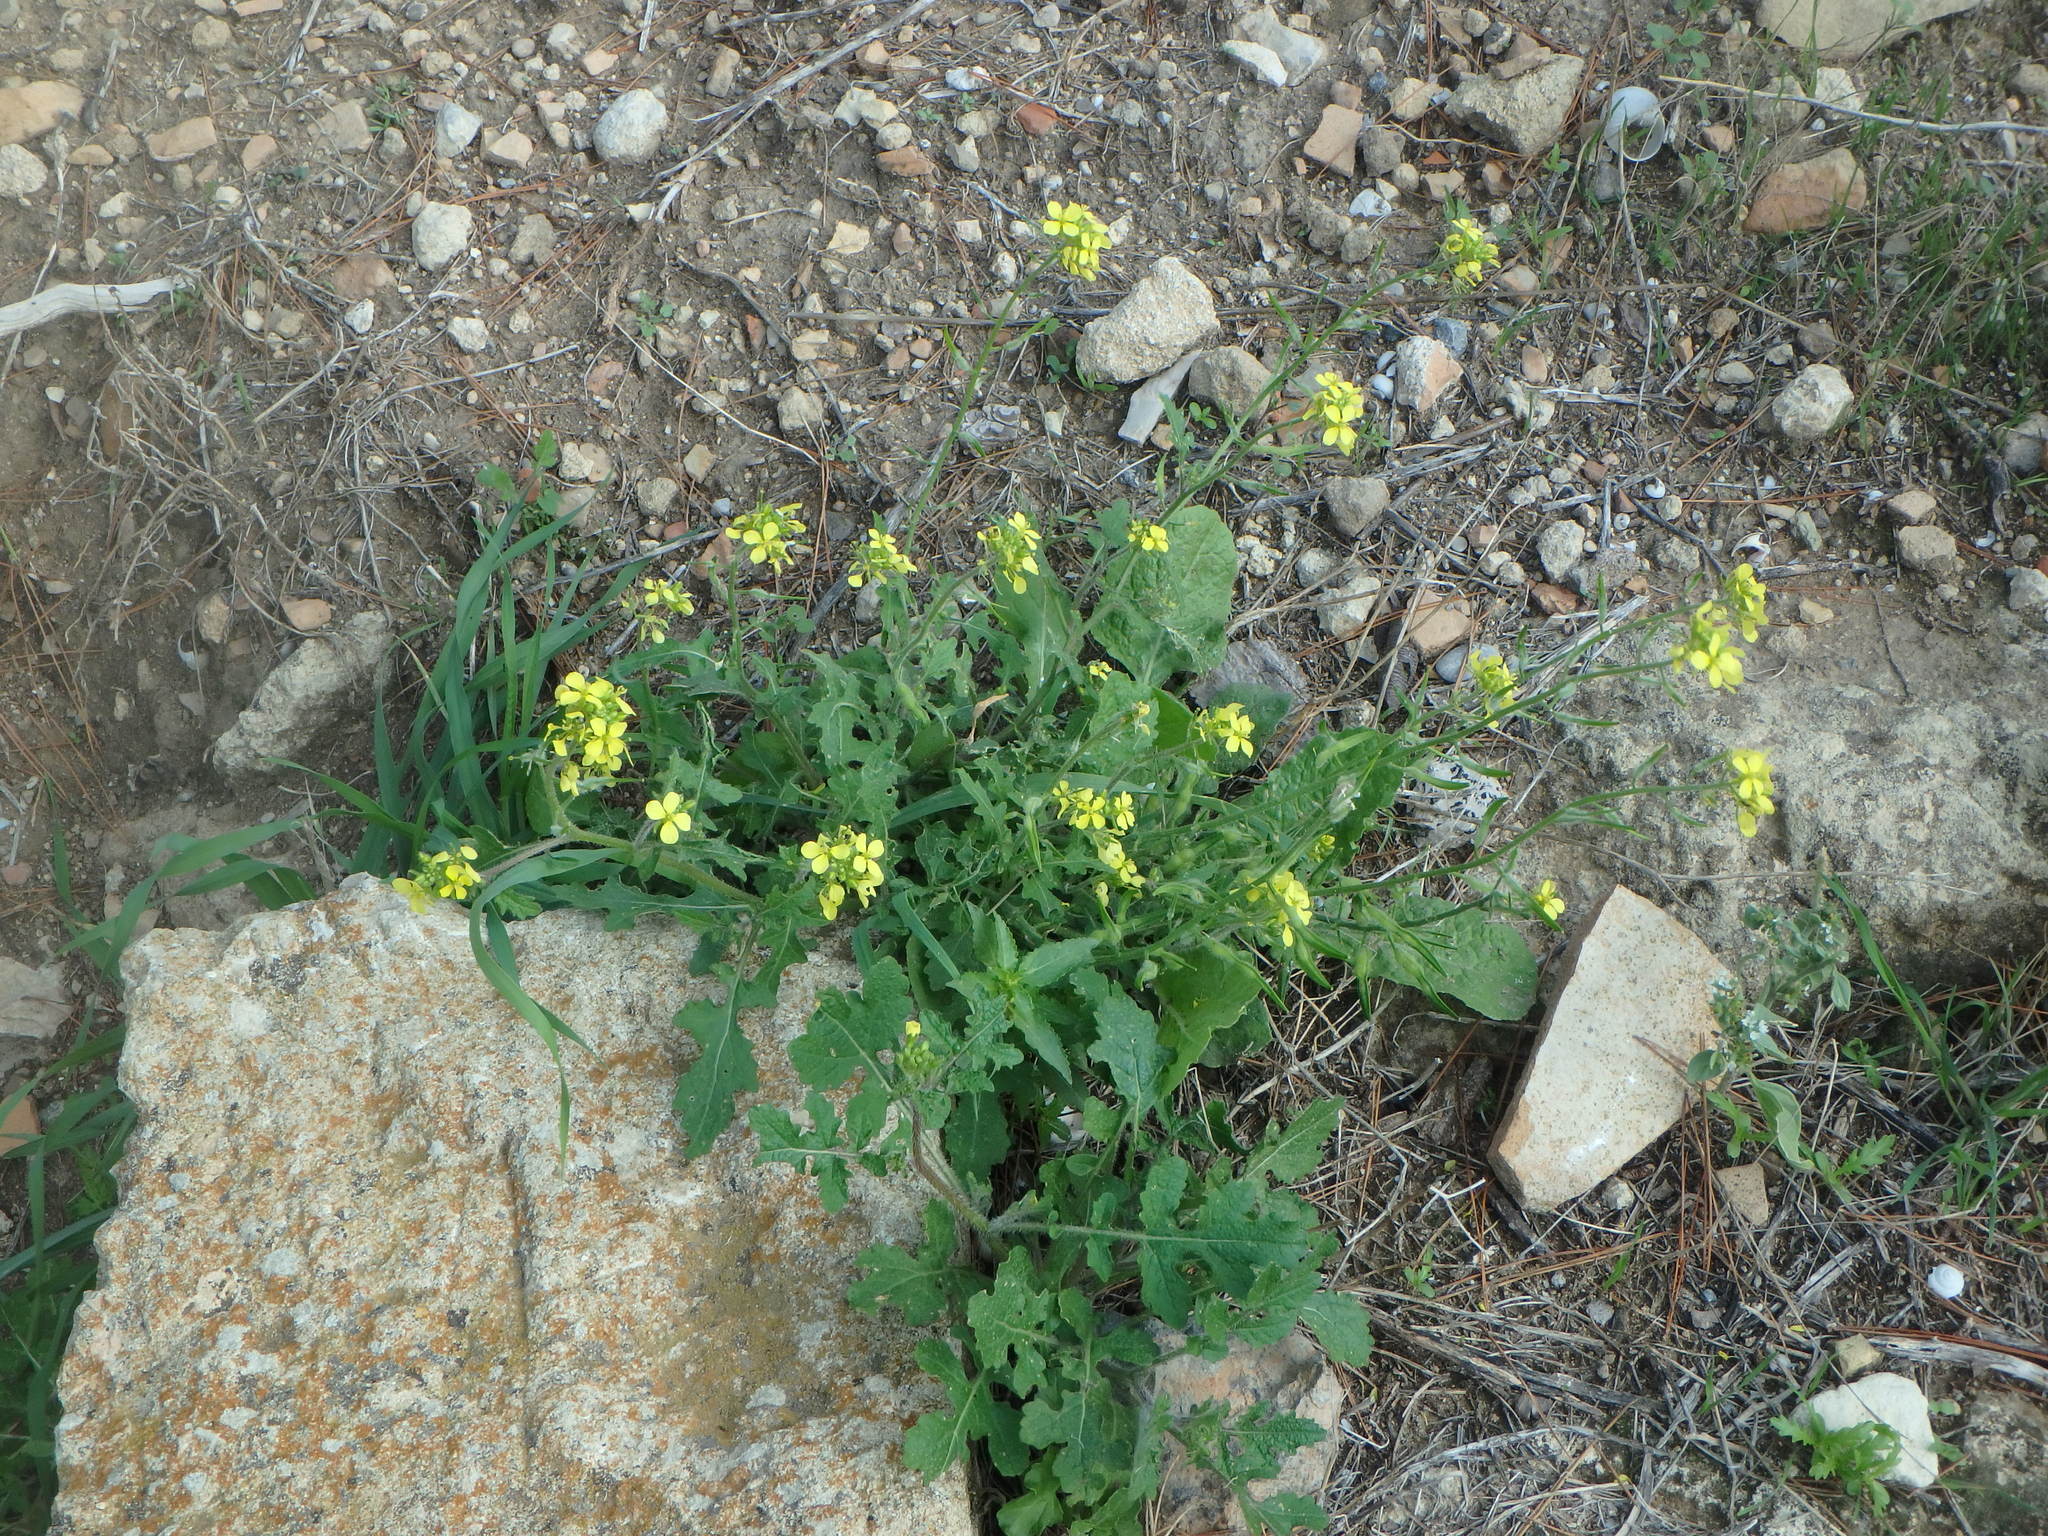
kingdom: Plantae
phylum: Tracheophyta
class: Magnoliopsida
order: Brassicales
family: Brassicaceae
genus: Sinapis
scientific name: Sinapis alba
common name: White mustard
